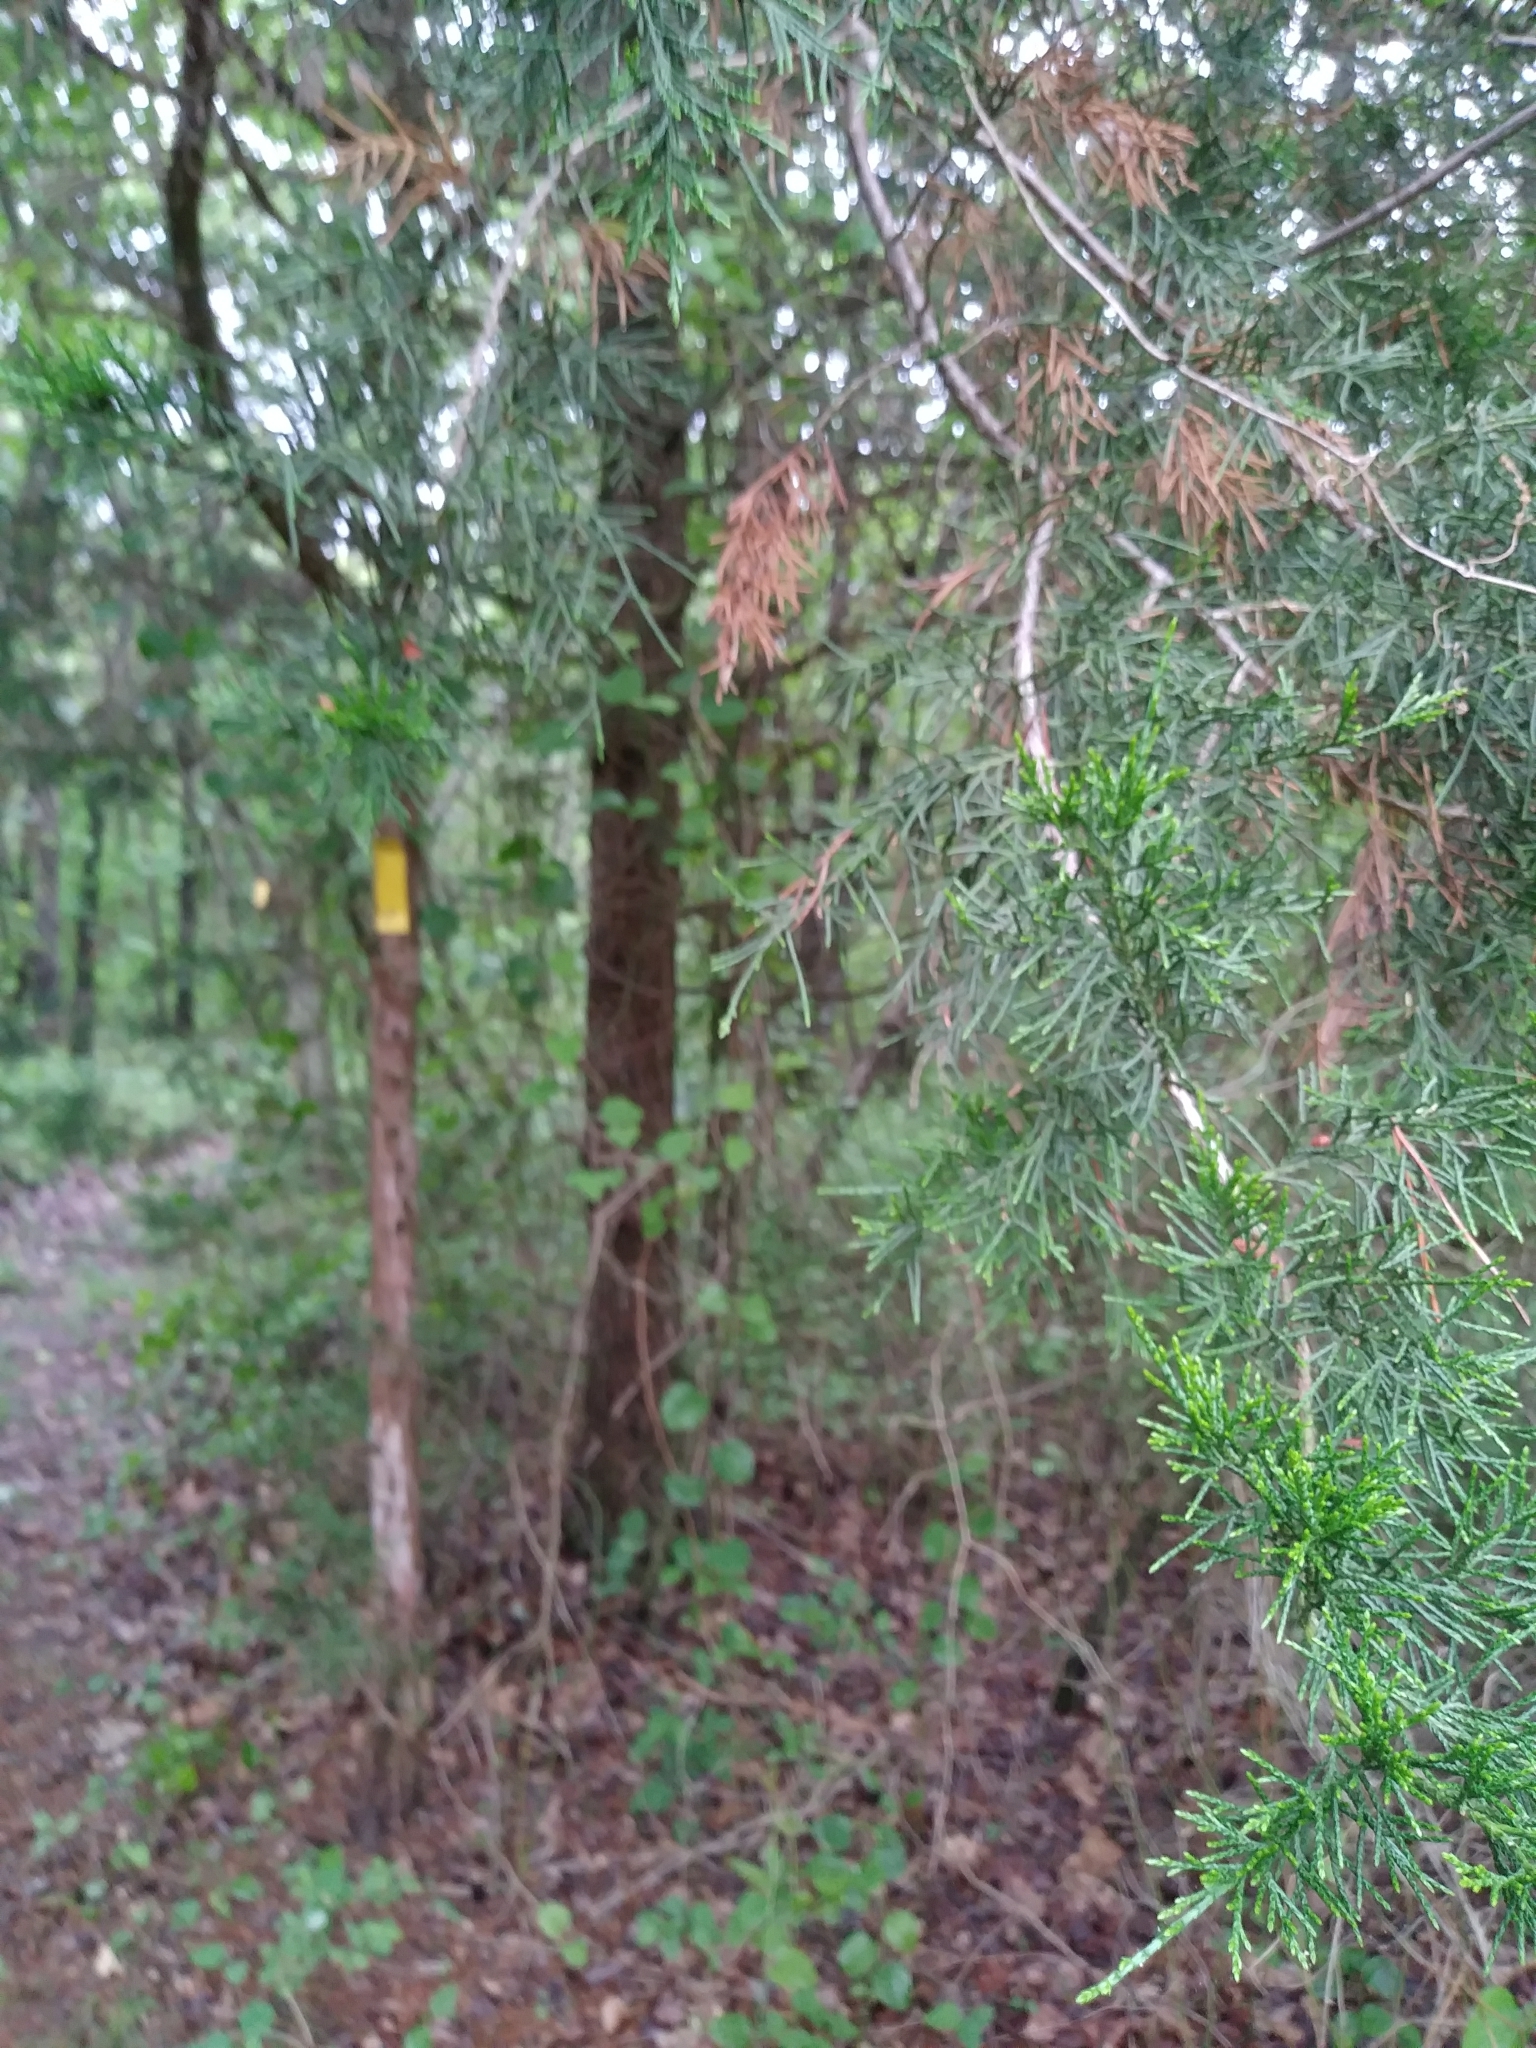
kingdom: Plantae
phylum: Tracheophyta
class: Pinopsida
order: Pinales
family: Cupressaceae
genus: Juniperus
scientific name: Juniperus virginiana
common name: Red juniper
